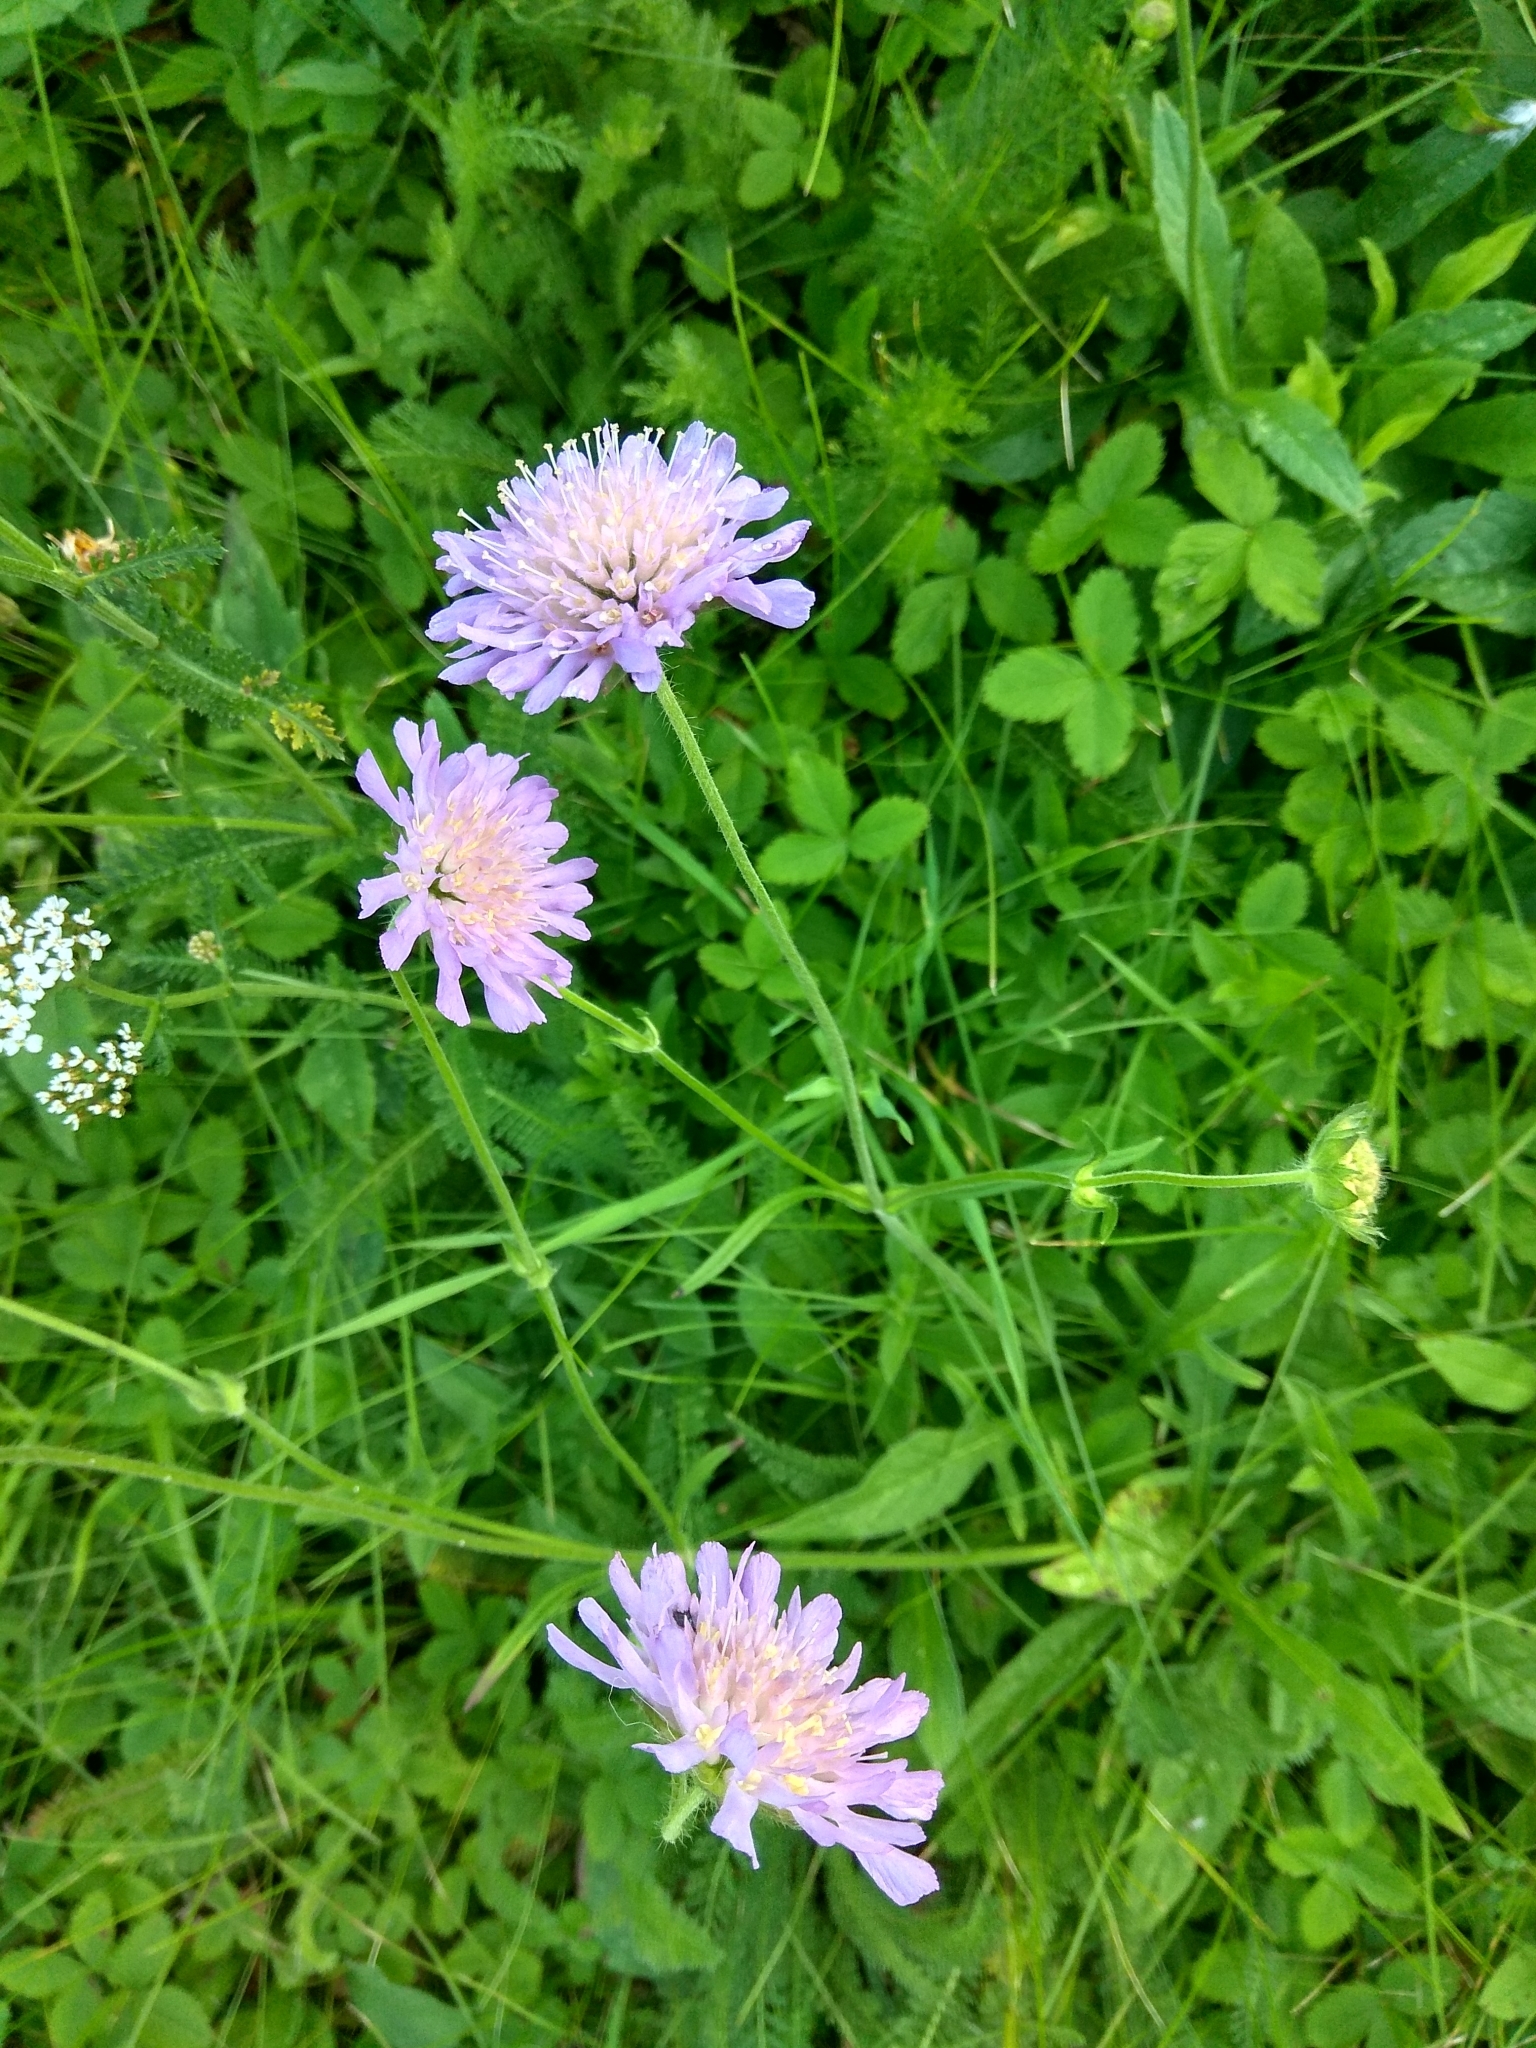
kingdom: Plantae
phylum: Tracheophyta
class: Magnoliopsida
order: Dipsacales
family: Caprifoliaceae
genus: Knautia
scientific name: Knautia arvensis
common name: Field scabiosa
